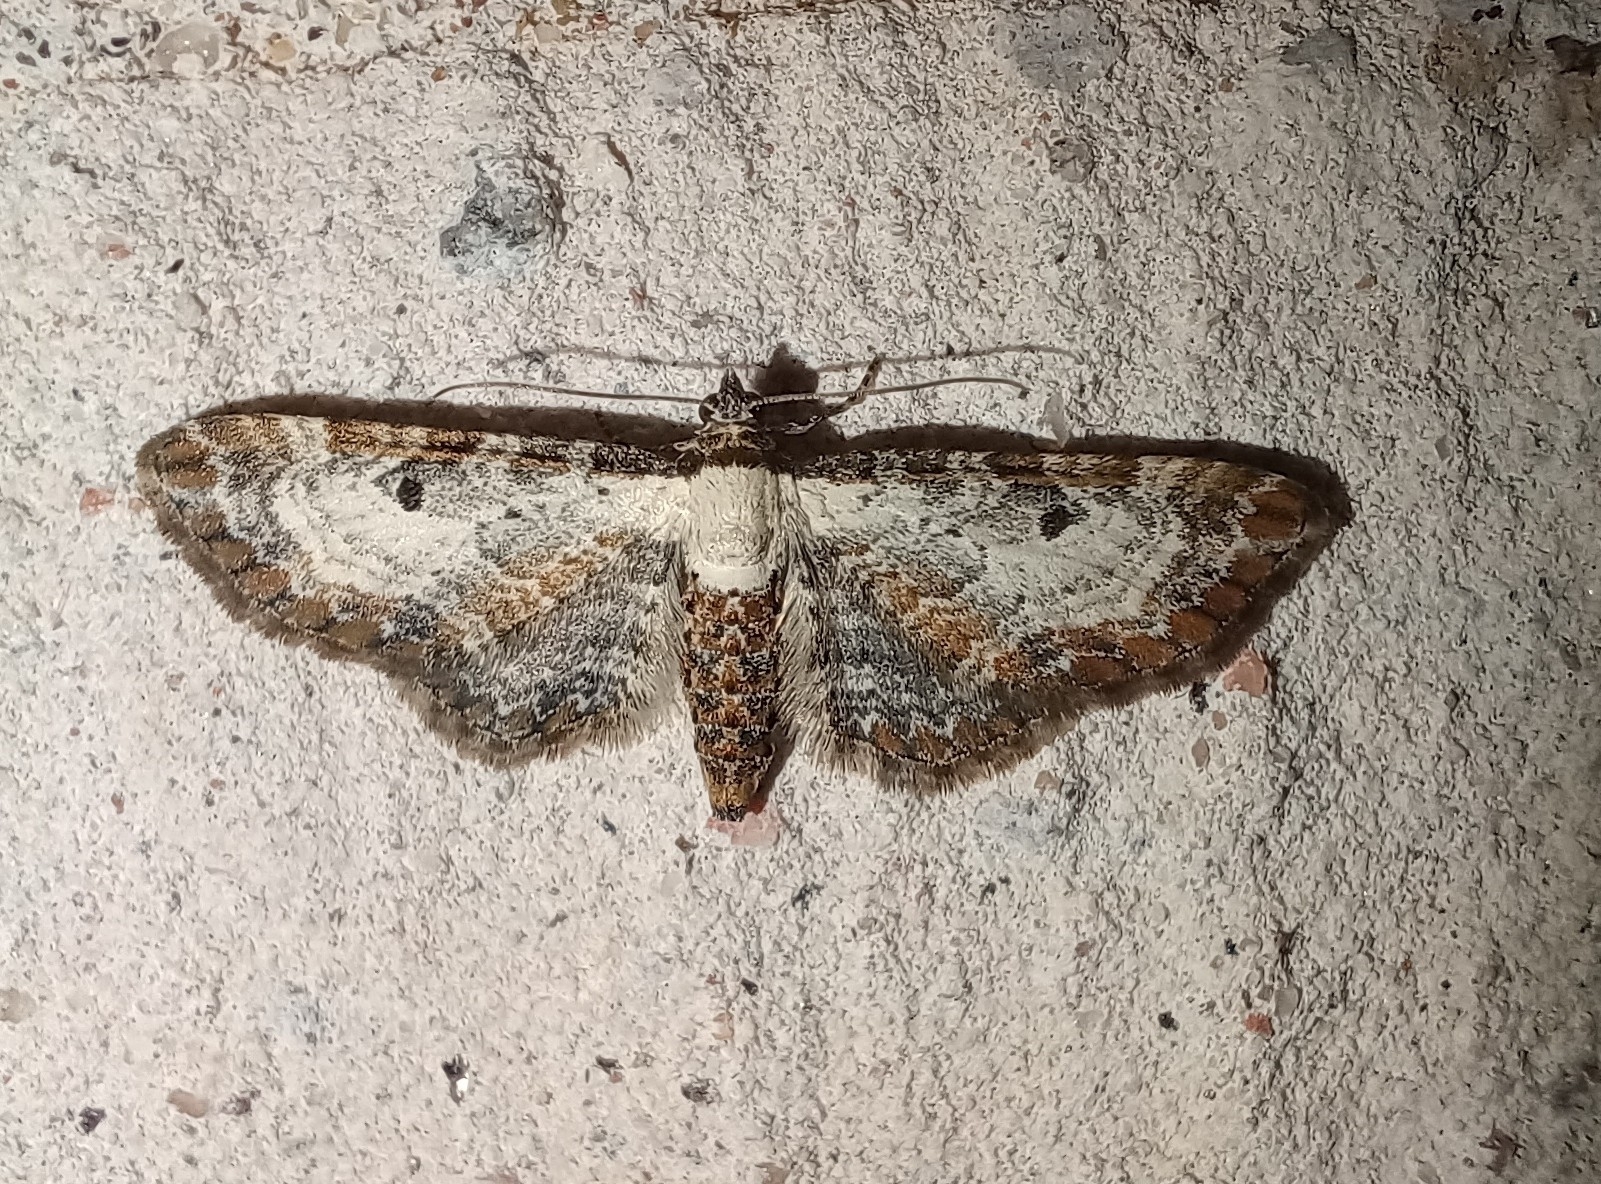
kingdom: Animalia
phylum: Arthropoda
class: Insecta
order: Lepidoptera
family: Geometridae
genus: Eupithecia
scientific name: Eupithecia succenturiata
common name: Bordered pug
